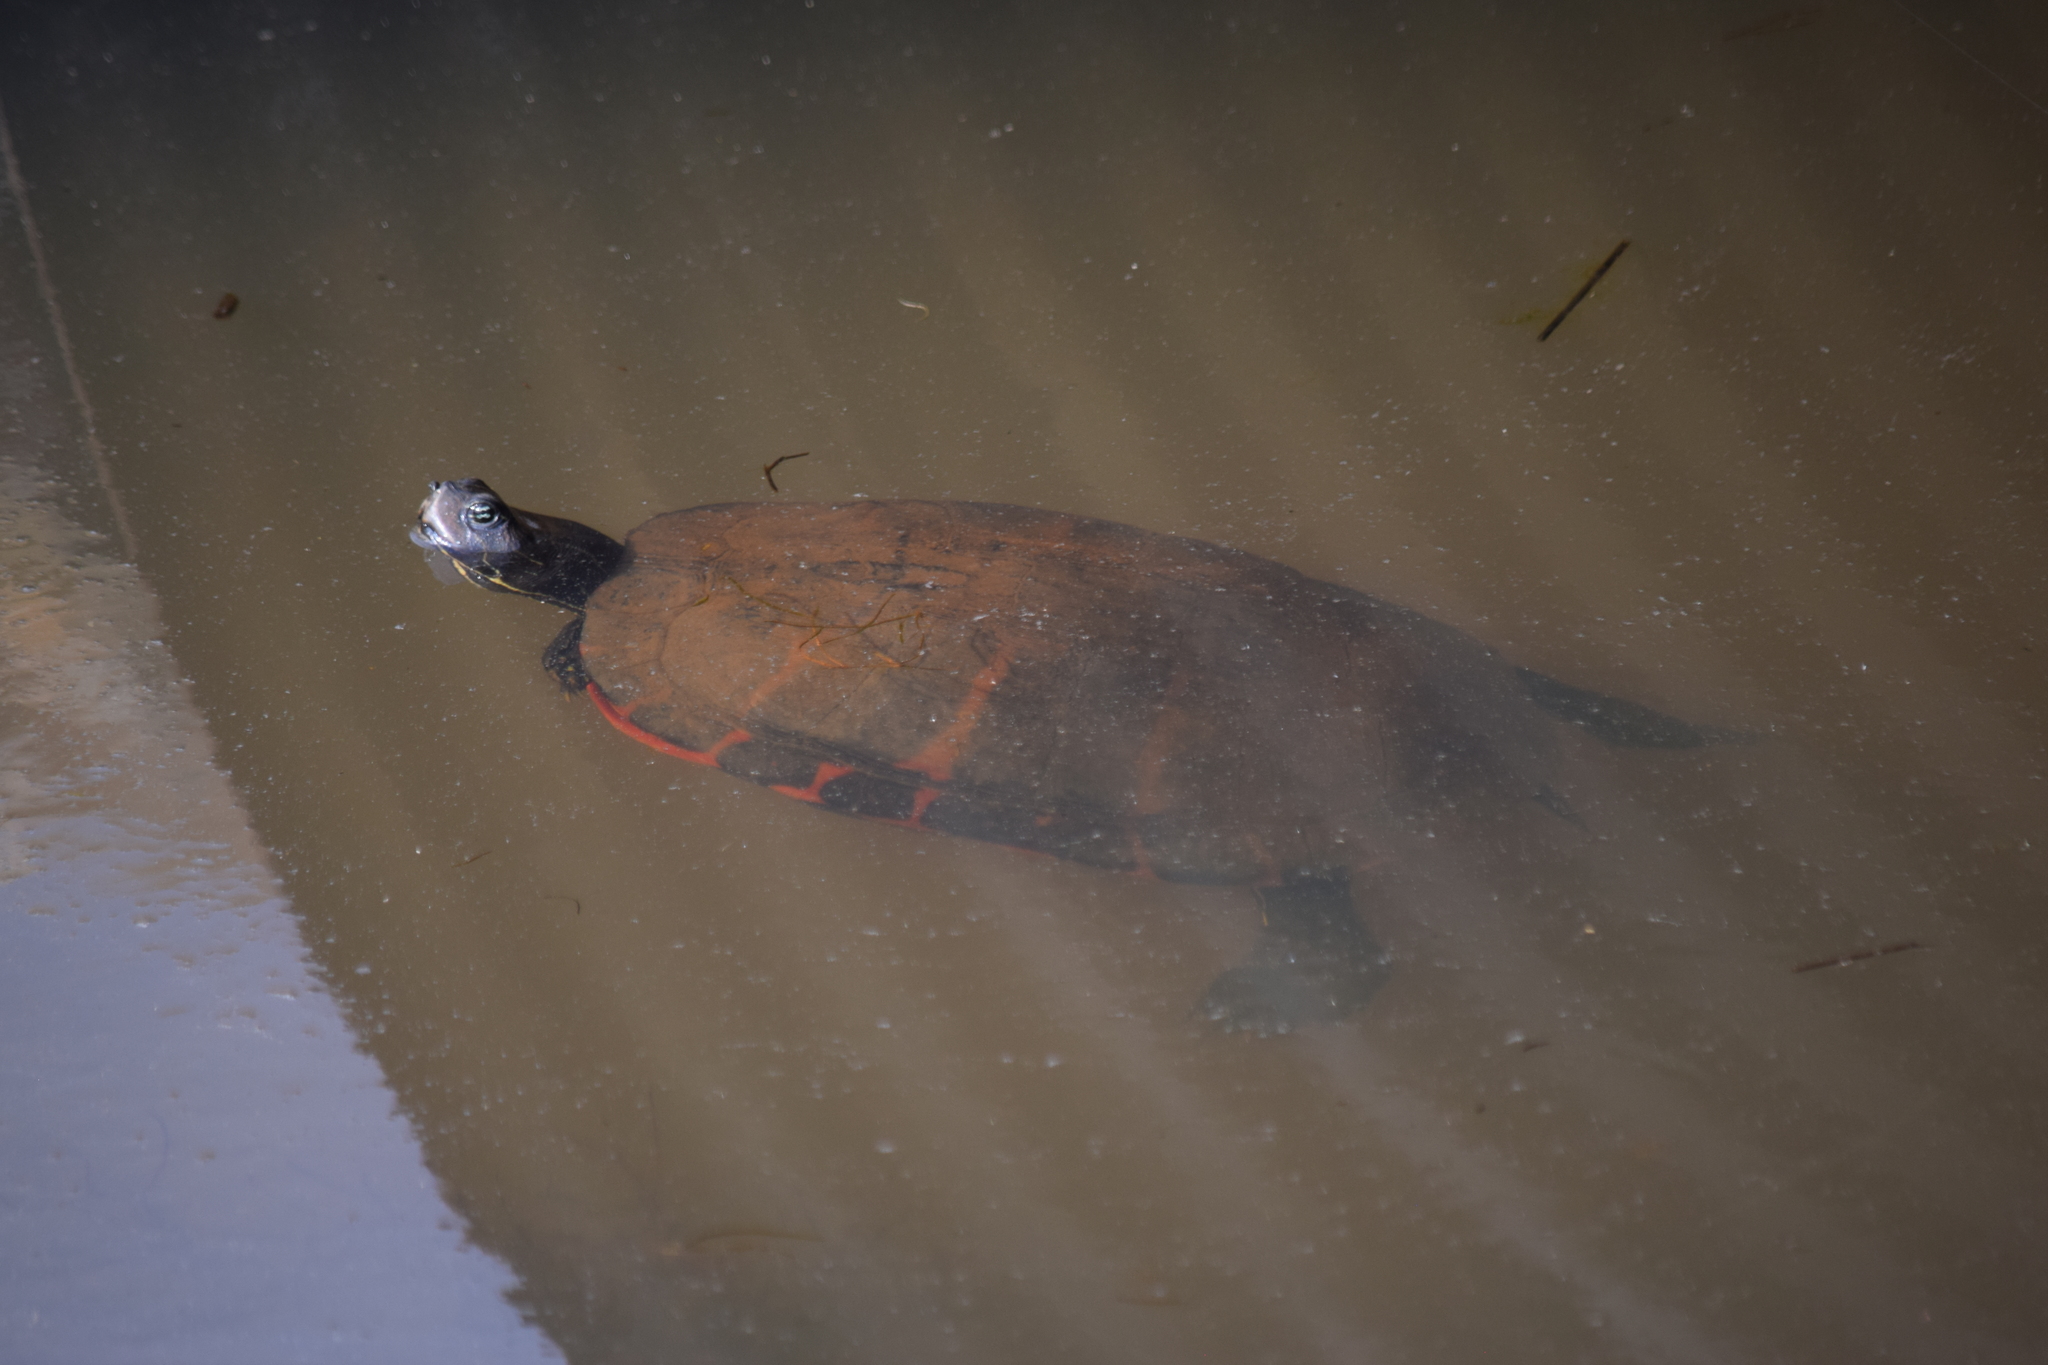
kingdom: Animalia
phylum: Chordata
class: Testudines
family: Emydidae
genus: Pseudemys
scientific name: Pseudemys rubriventris
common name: American red-bellied turtle
